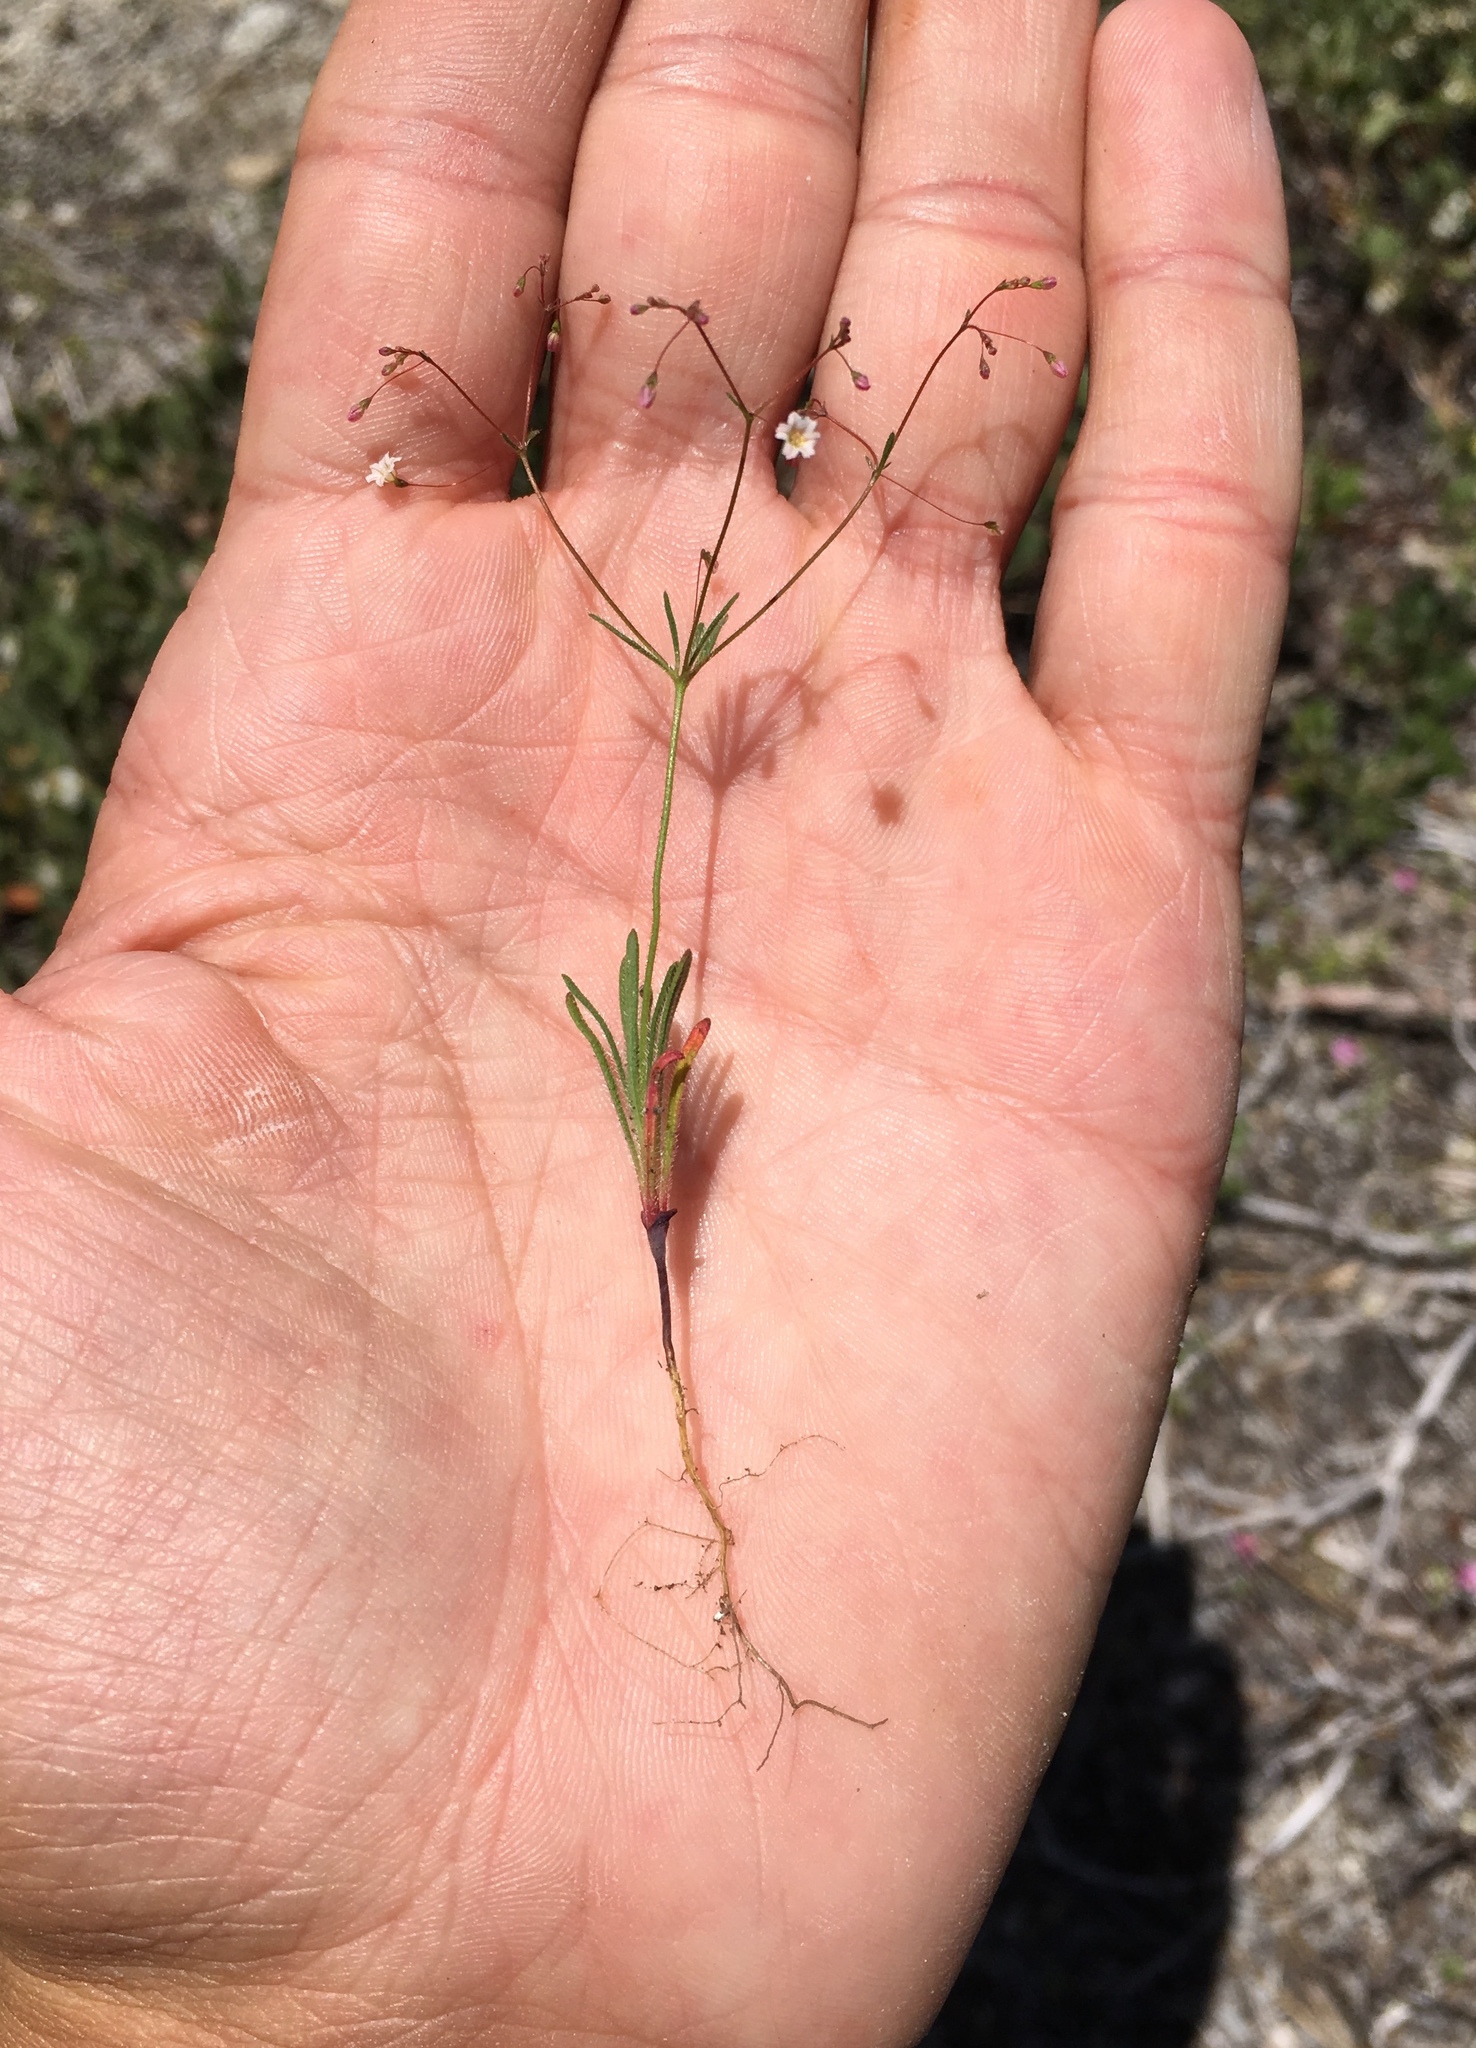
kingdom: Plantae
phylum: Tracheophyta
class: Magnoliopsida
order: Caryophyllales
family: Polygonaceae
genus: Eriogonum
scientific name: Eriogonum spergulinum
